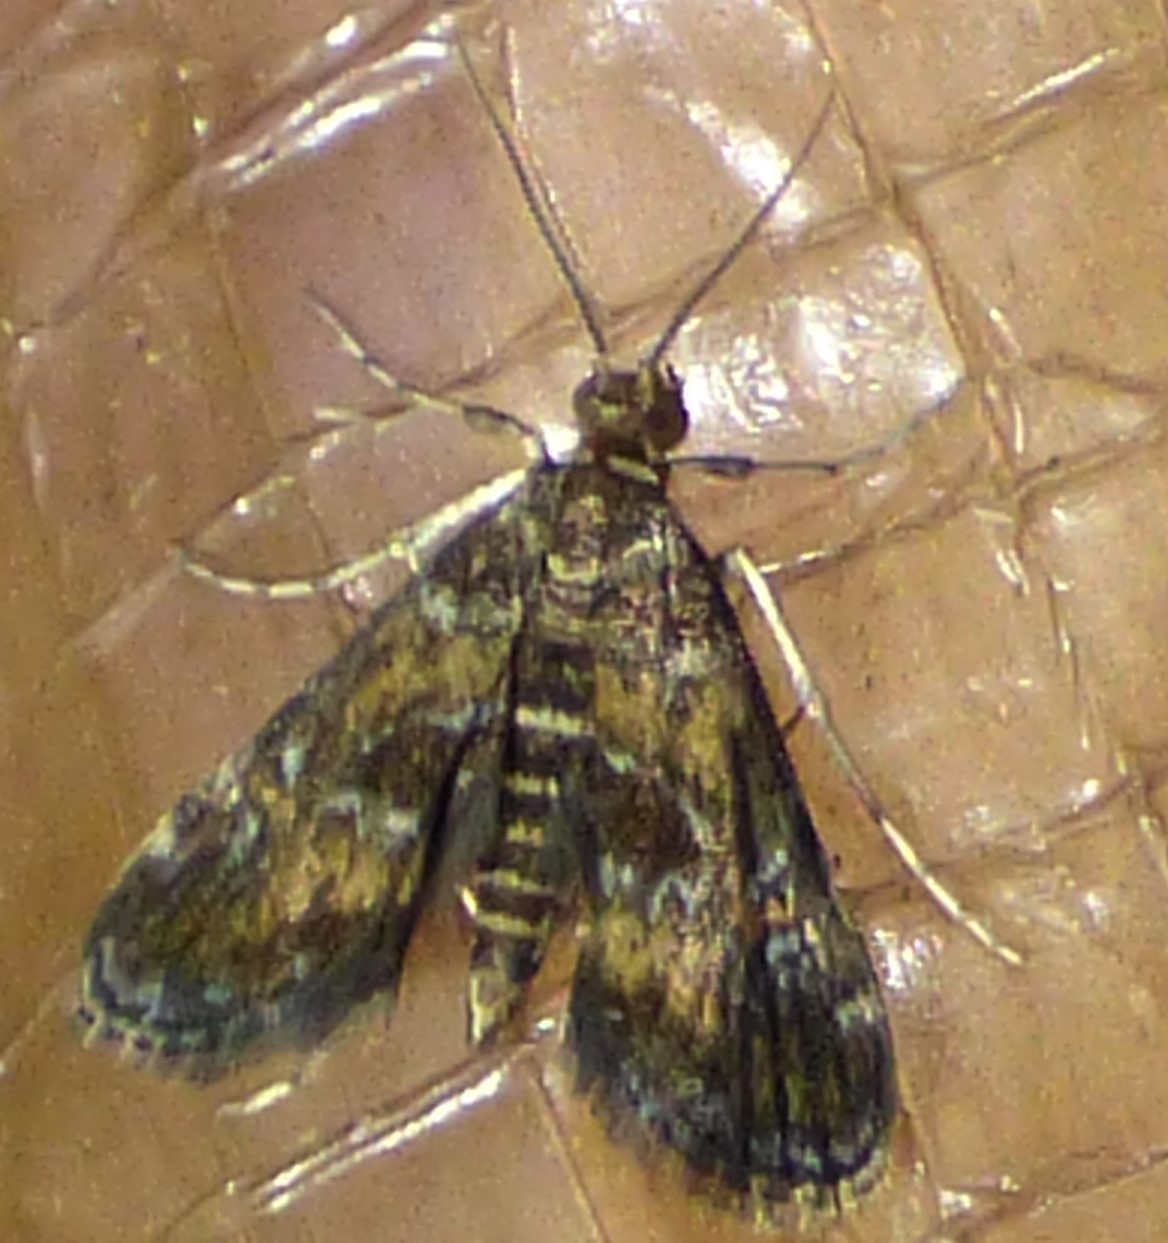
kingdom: Animalia
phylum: Arthropoda
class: Insecta
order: Lepidoptera
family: Crambidae
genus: Elophila
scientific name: Elophila obliteralis
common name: Waterlily leafcutter moth
